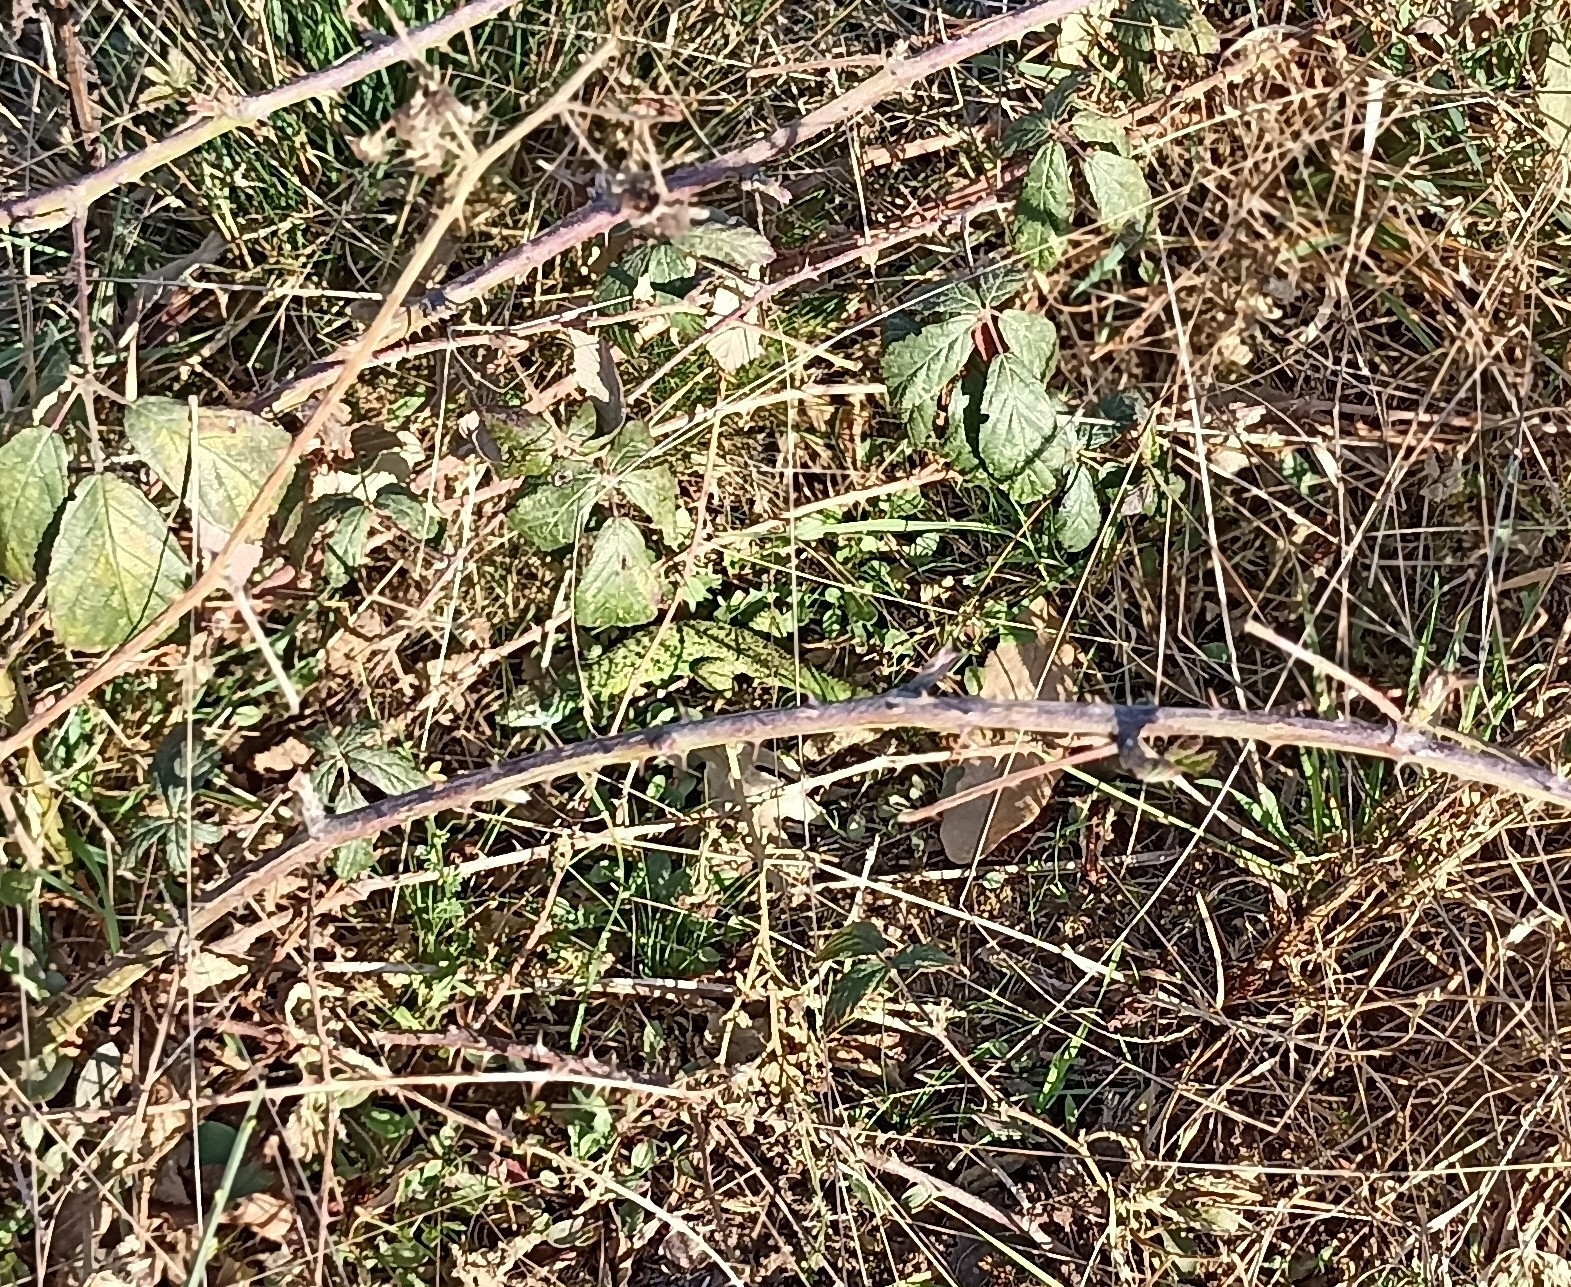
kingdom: Animalia
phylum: Chordata
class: Squamata
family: Lacertidae
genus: Lacerta
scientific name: Lacerta bilineata
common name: Western green lizard
